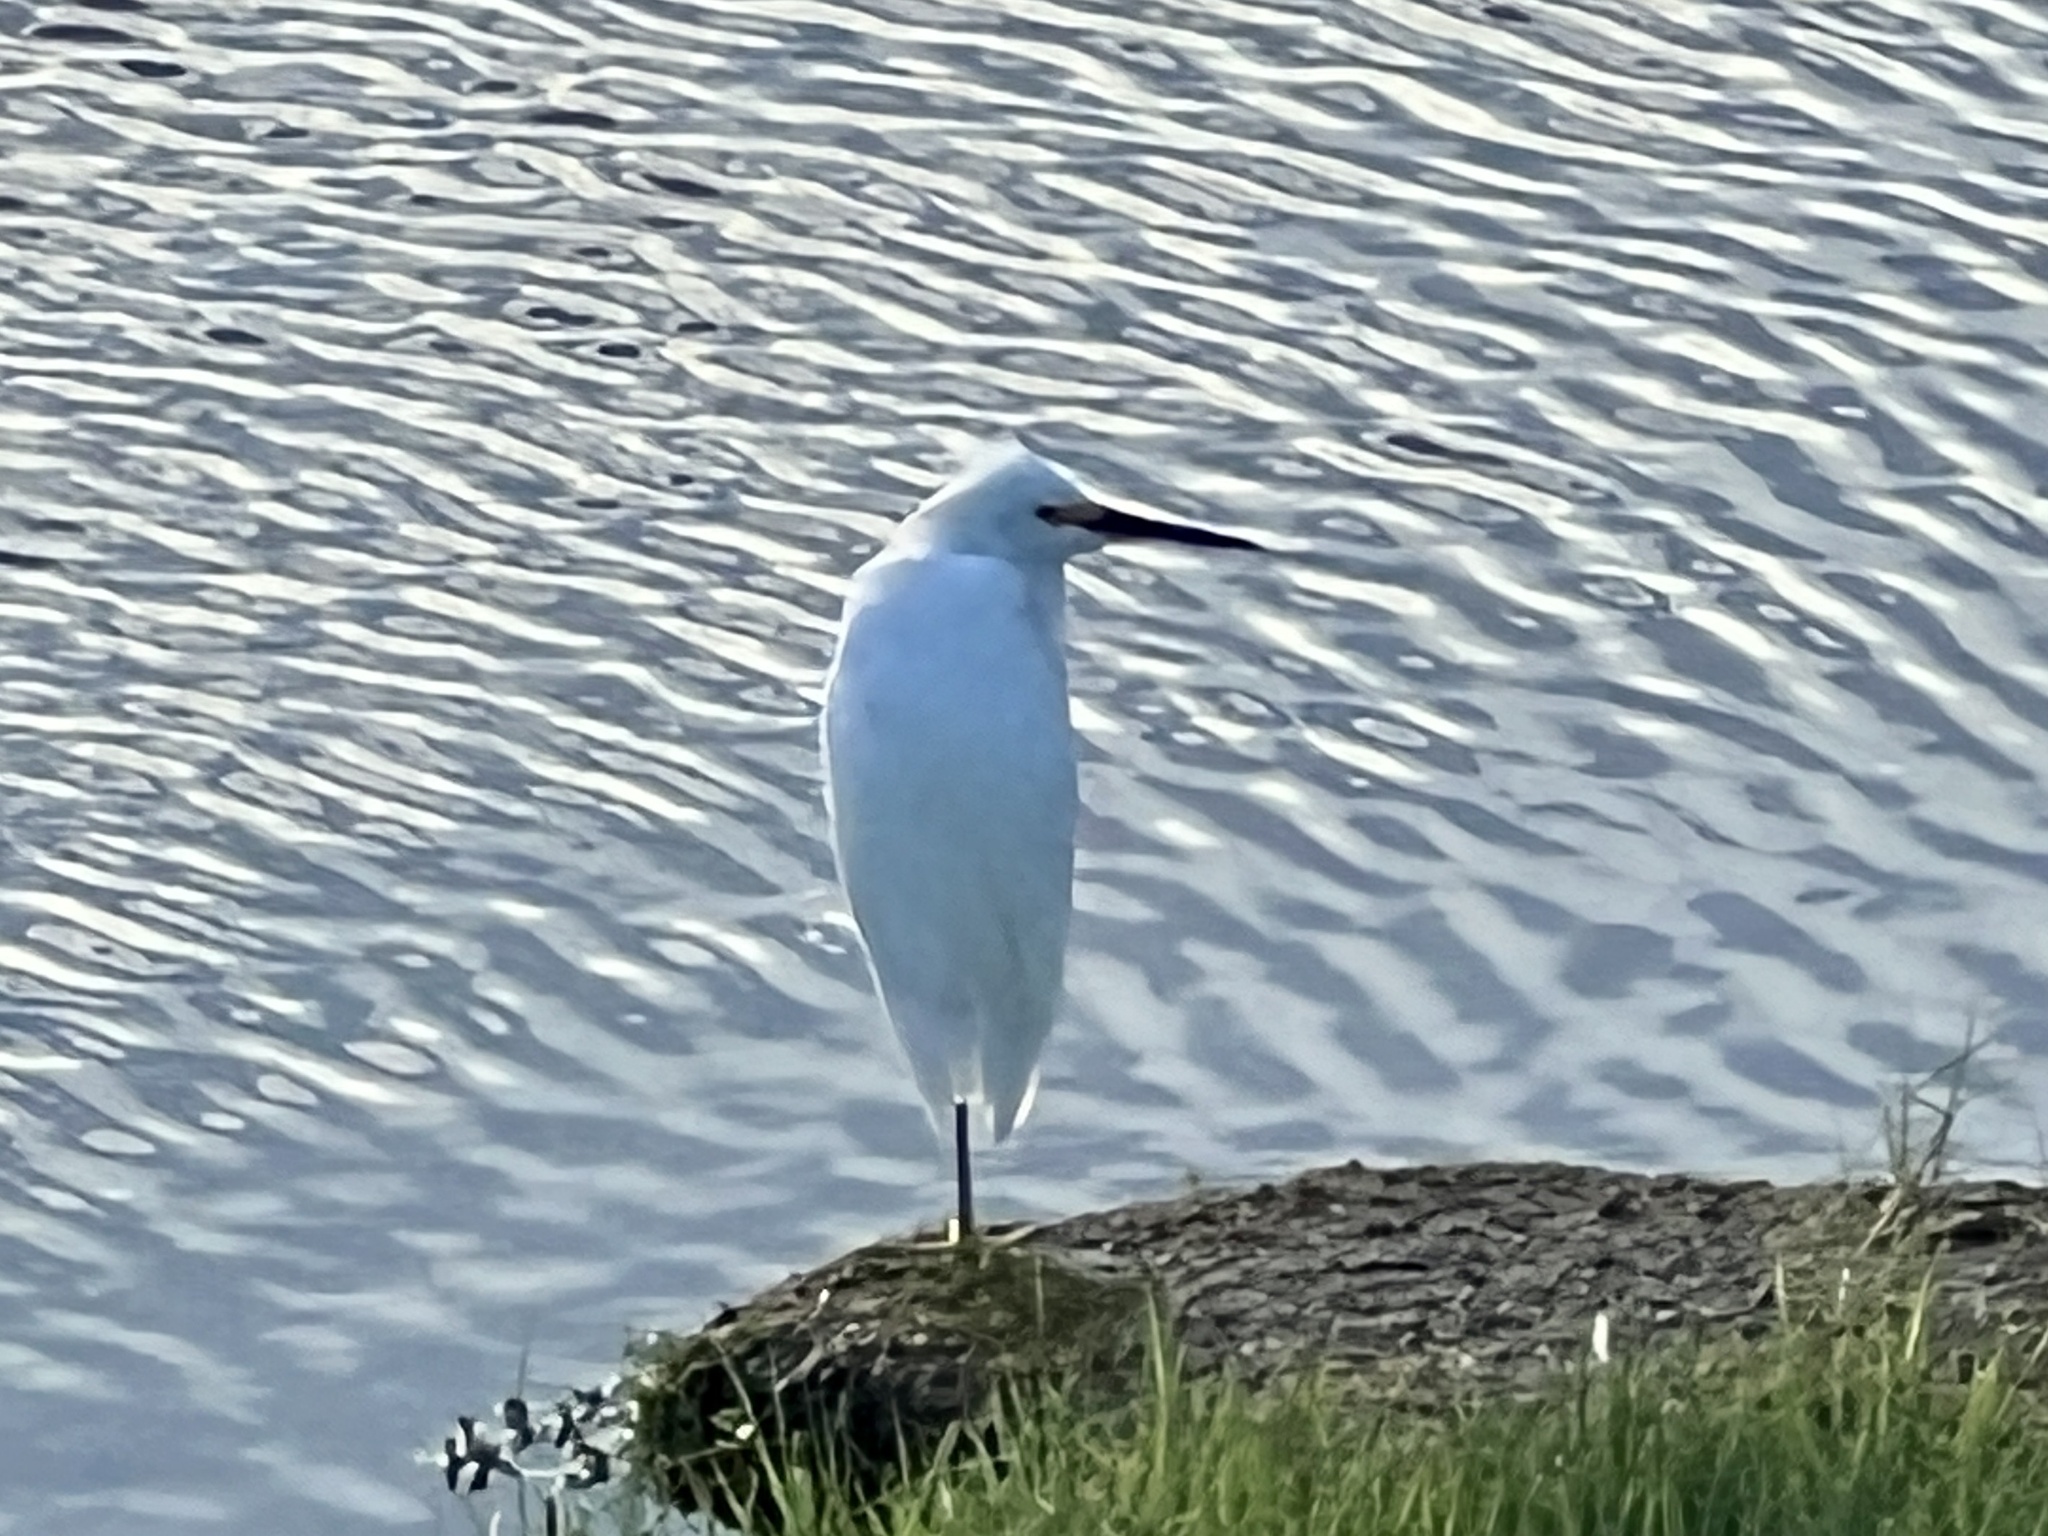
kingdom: Animalia
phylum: Chordata
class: Aves
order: Pelecaniformes
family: Ardeidae
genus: Egretta
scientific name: Egretta thula
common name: Snowy egret
